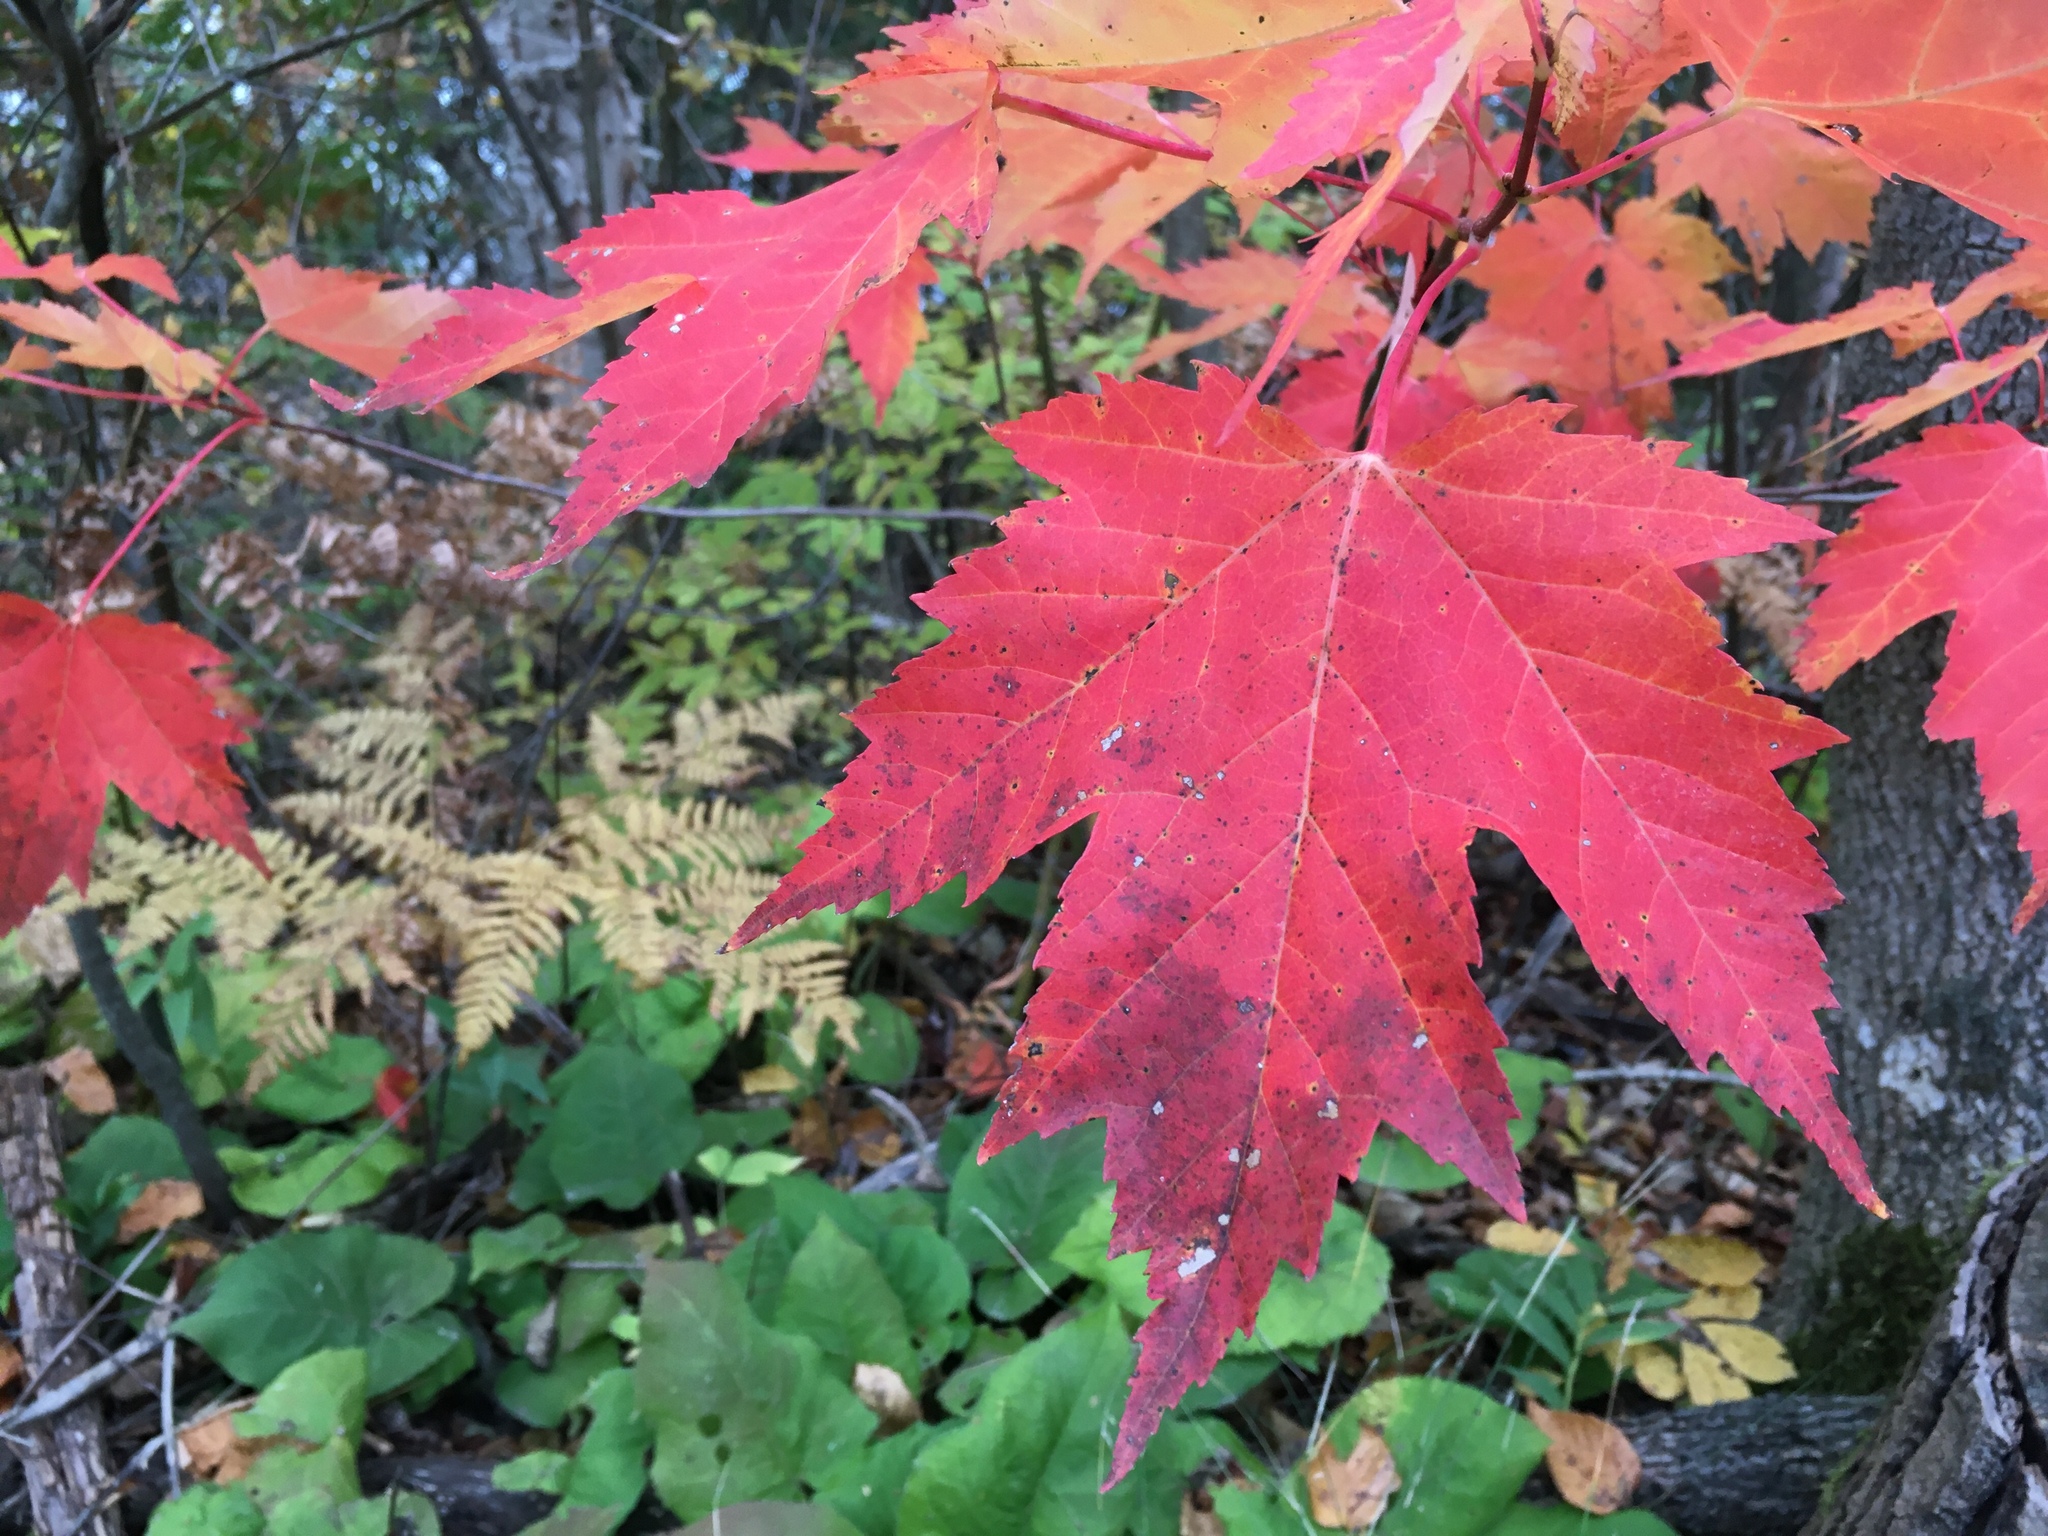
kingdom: Plantae
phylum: Tracheophyta
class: Magnoliopsida
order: Sapindales
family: Sapindaceae
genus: Acer
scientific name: Acer freemanii
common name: Freeman maple
